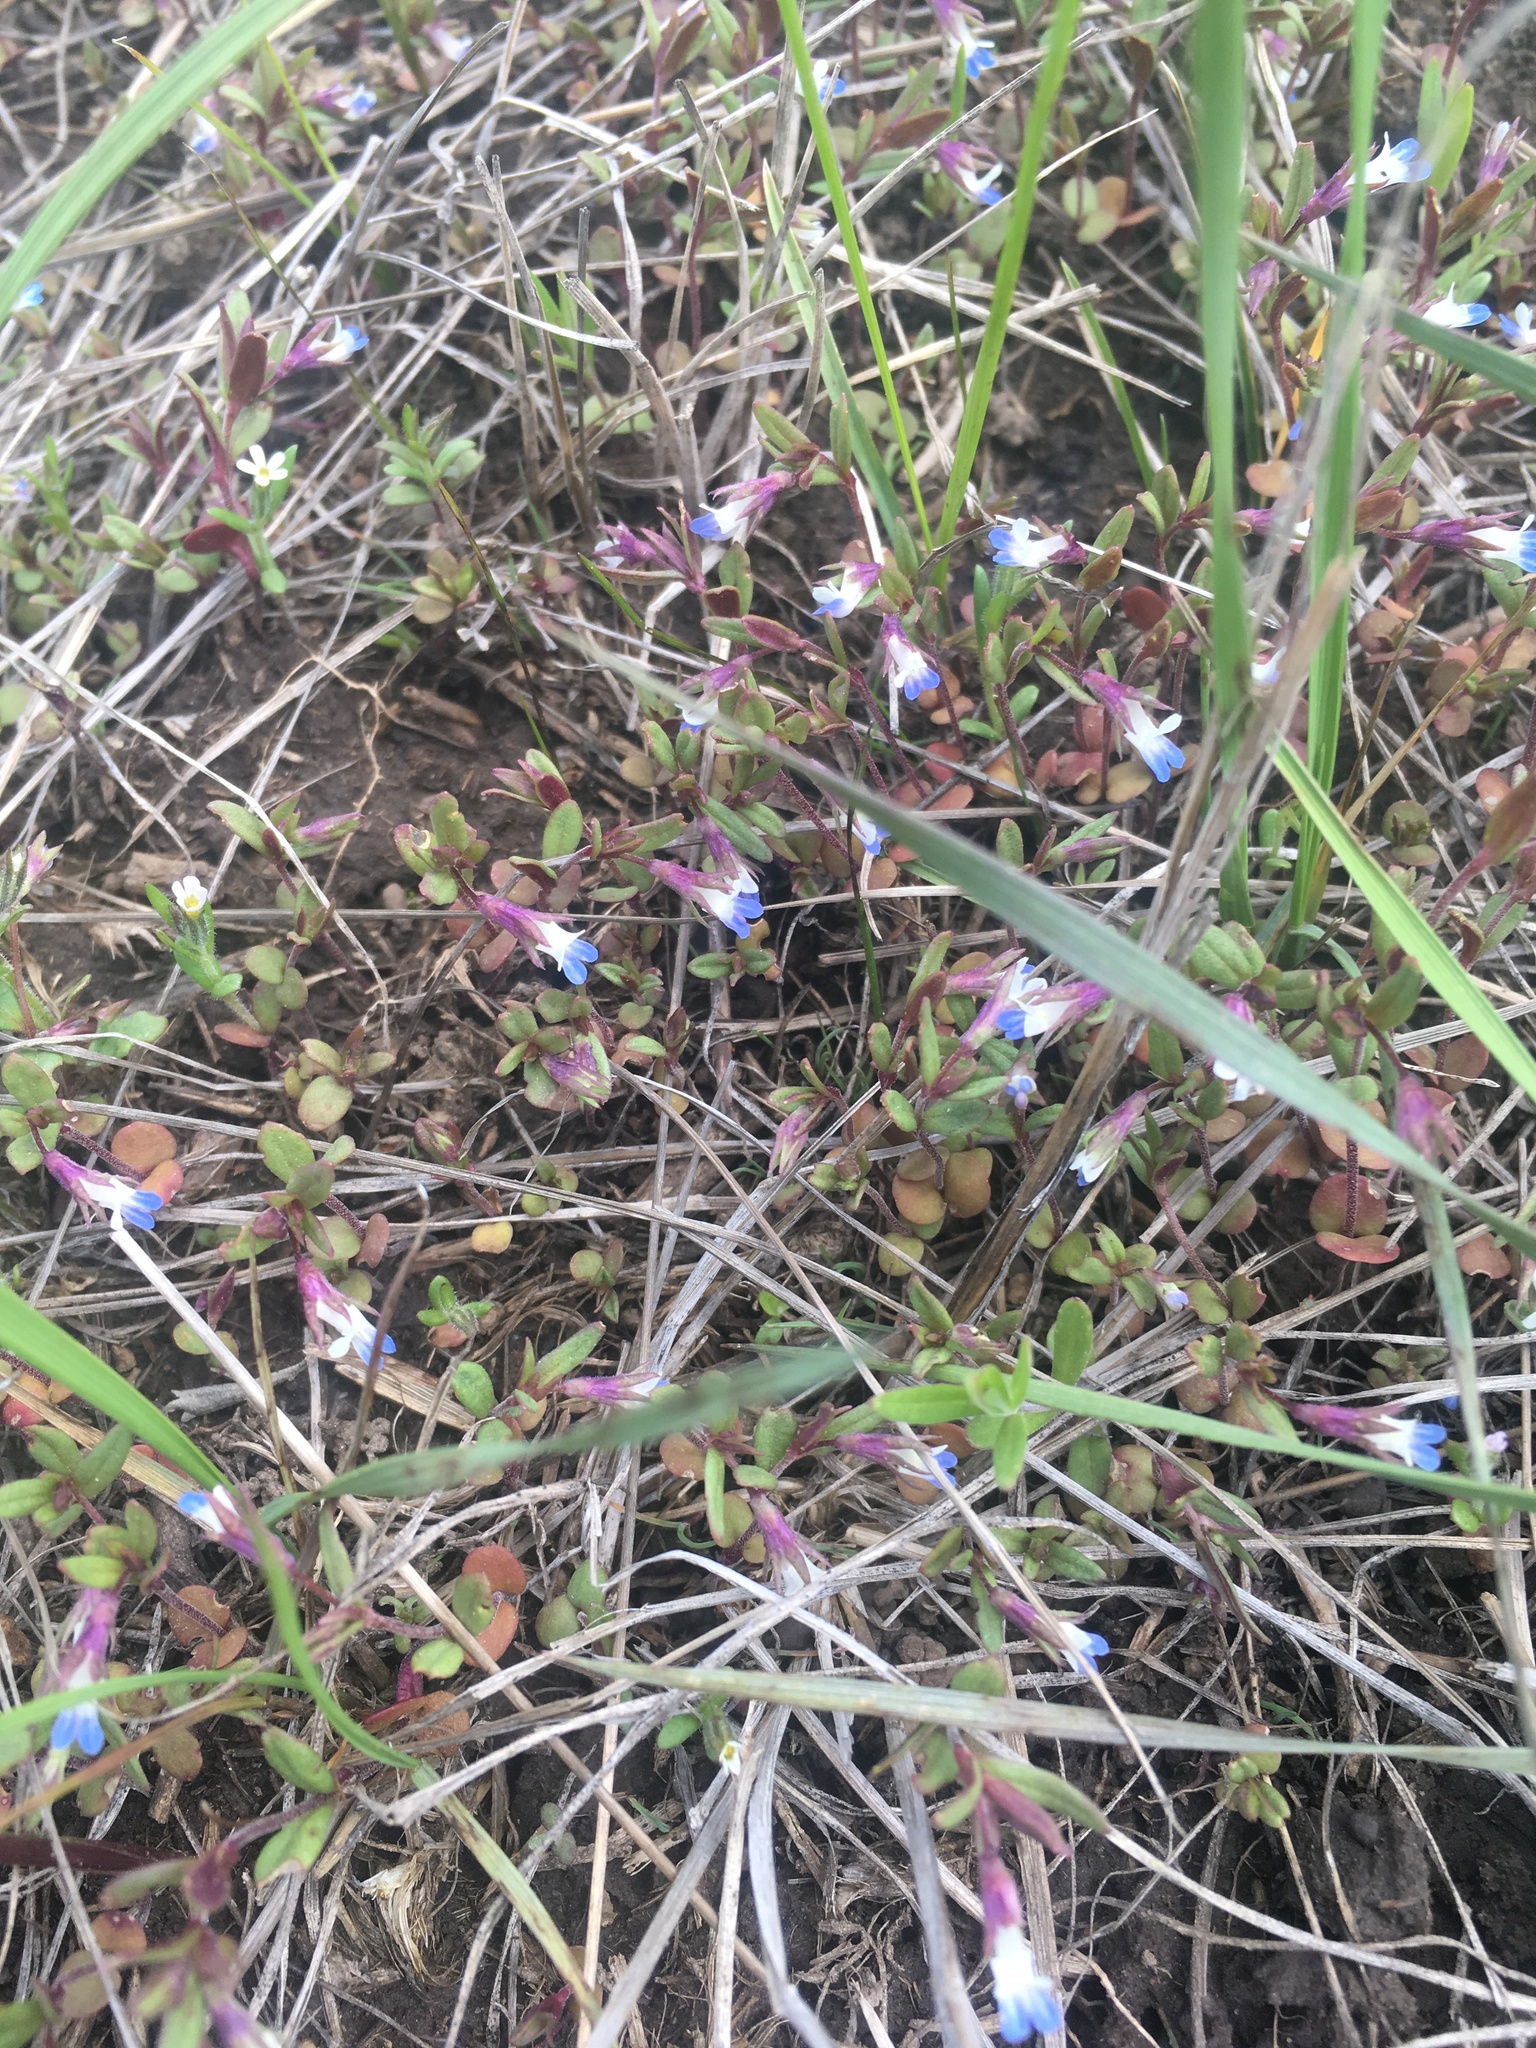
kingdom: Plantae
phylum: Tracheophyta
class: Magnoliopsida
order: Lamiales
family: Plantaginaceae
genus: Collinsia
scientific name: Collinsia parviflora
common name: Blue-lips
